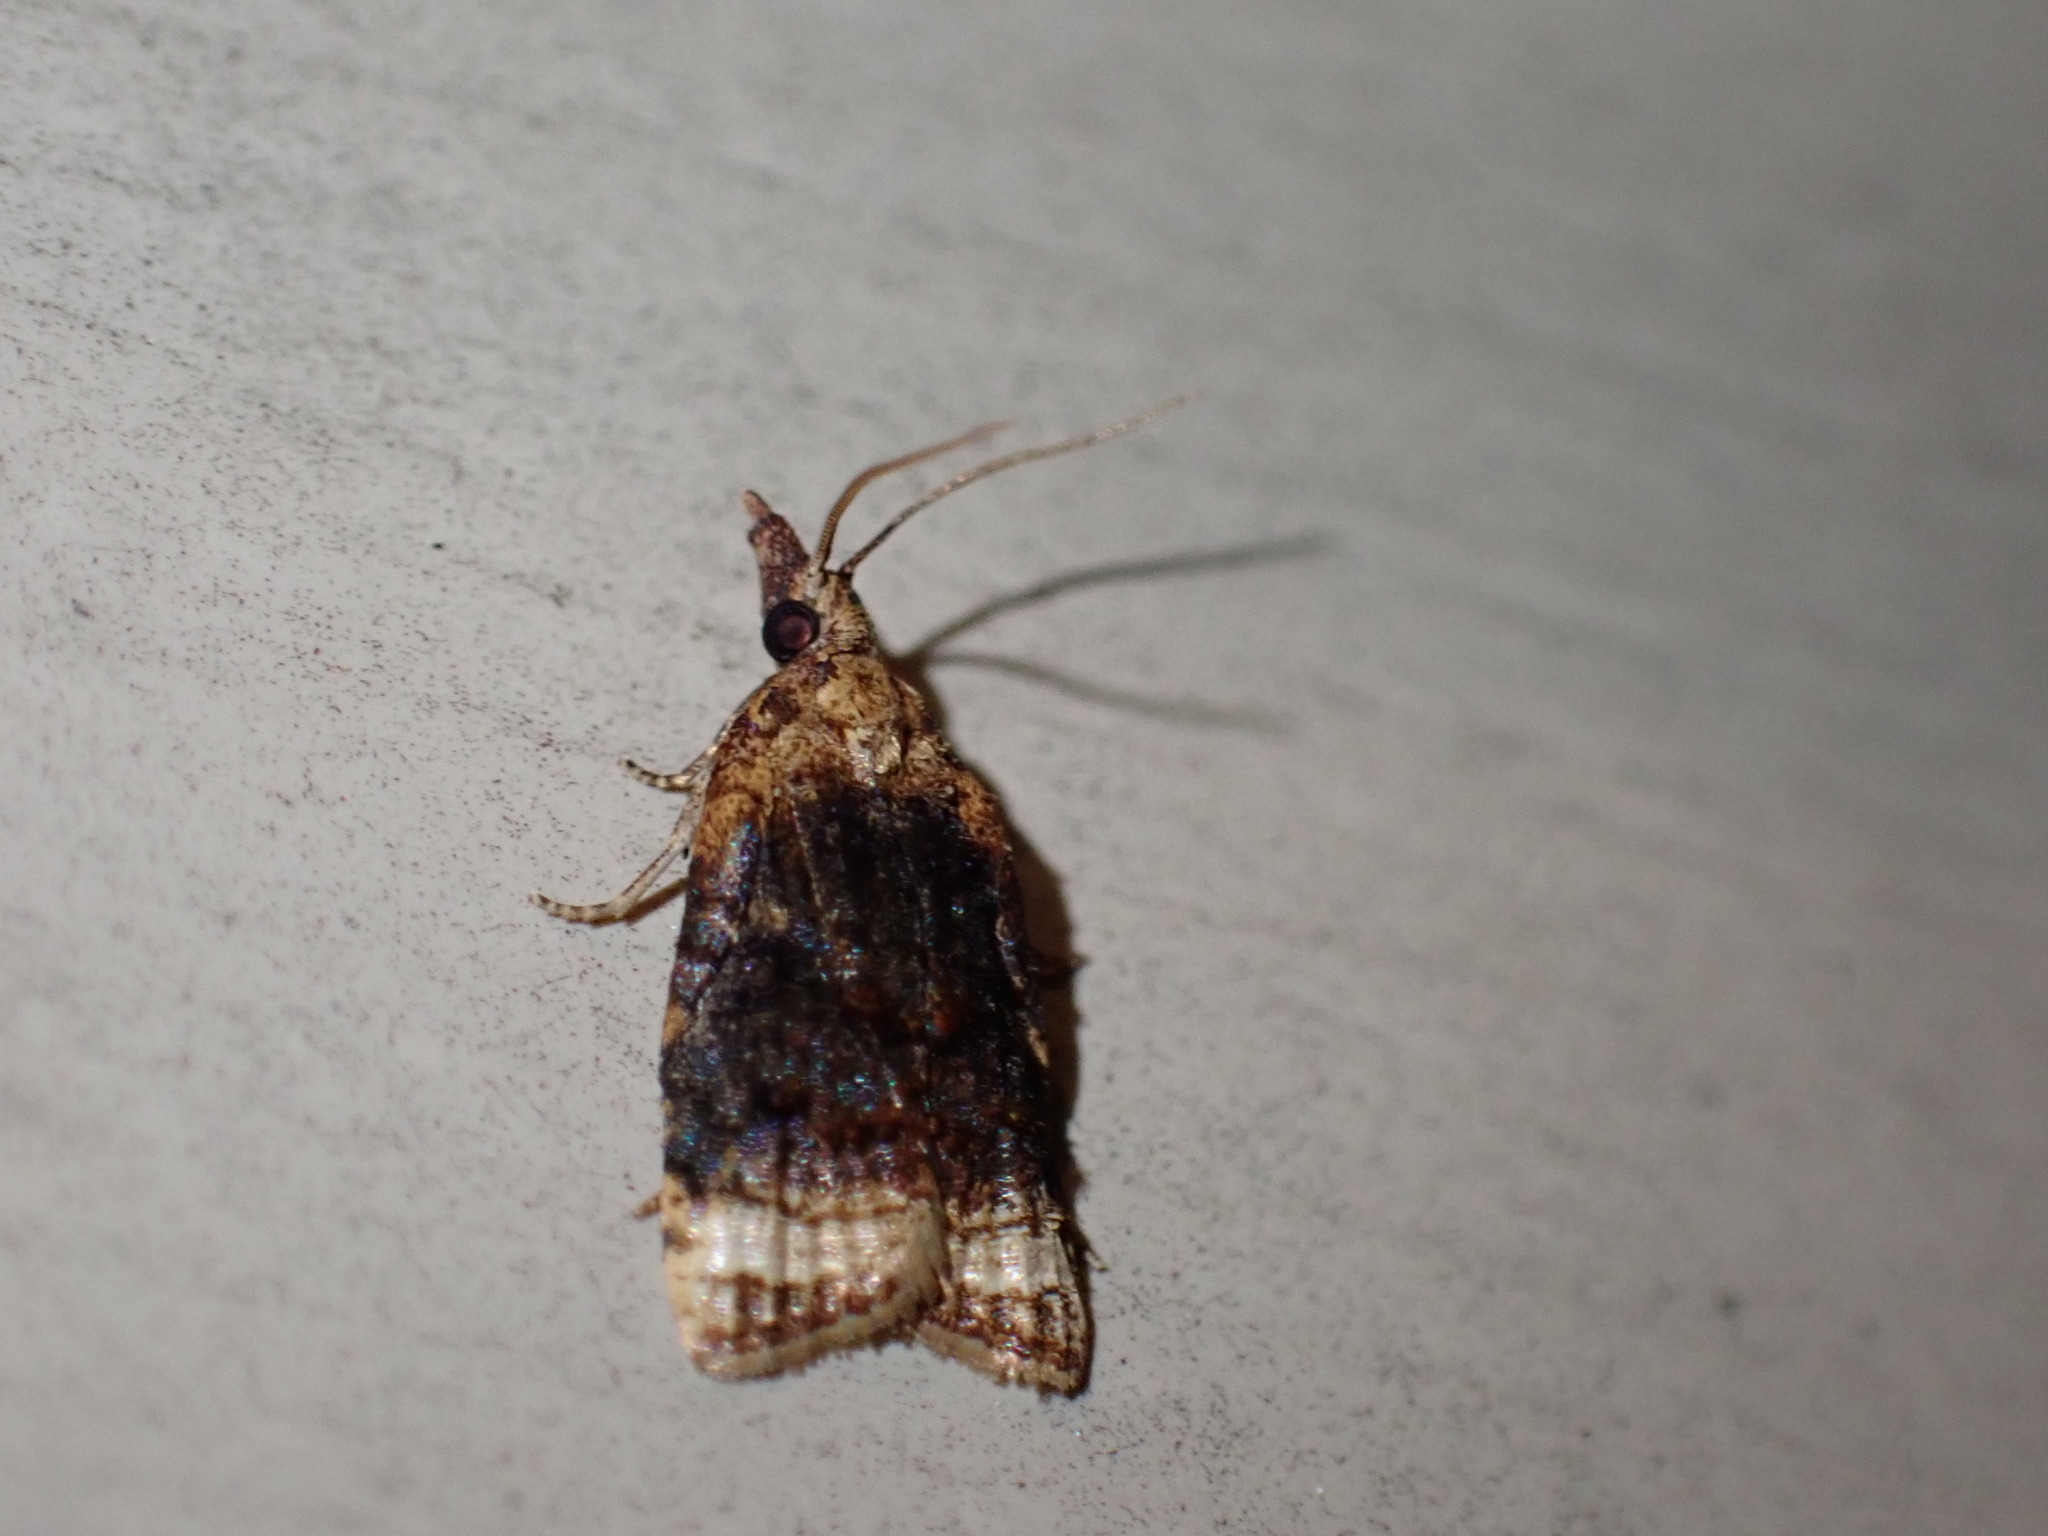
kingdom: Animalia
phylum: Arthropoda
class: Insecta
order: Lepidoptera
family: Tortricidae
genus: Platynota
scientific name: Platynota flavedana
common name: Black-shaded platynota moth
